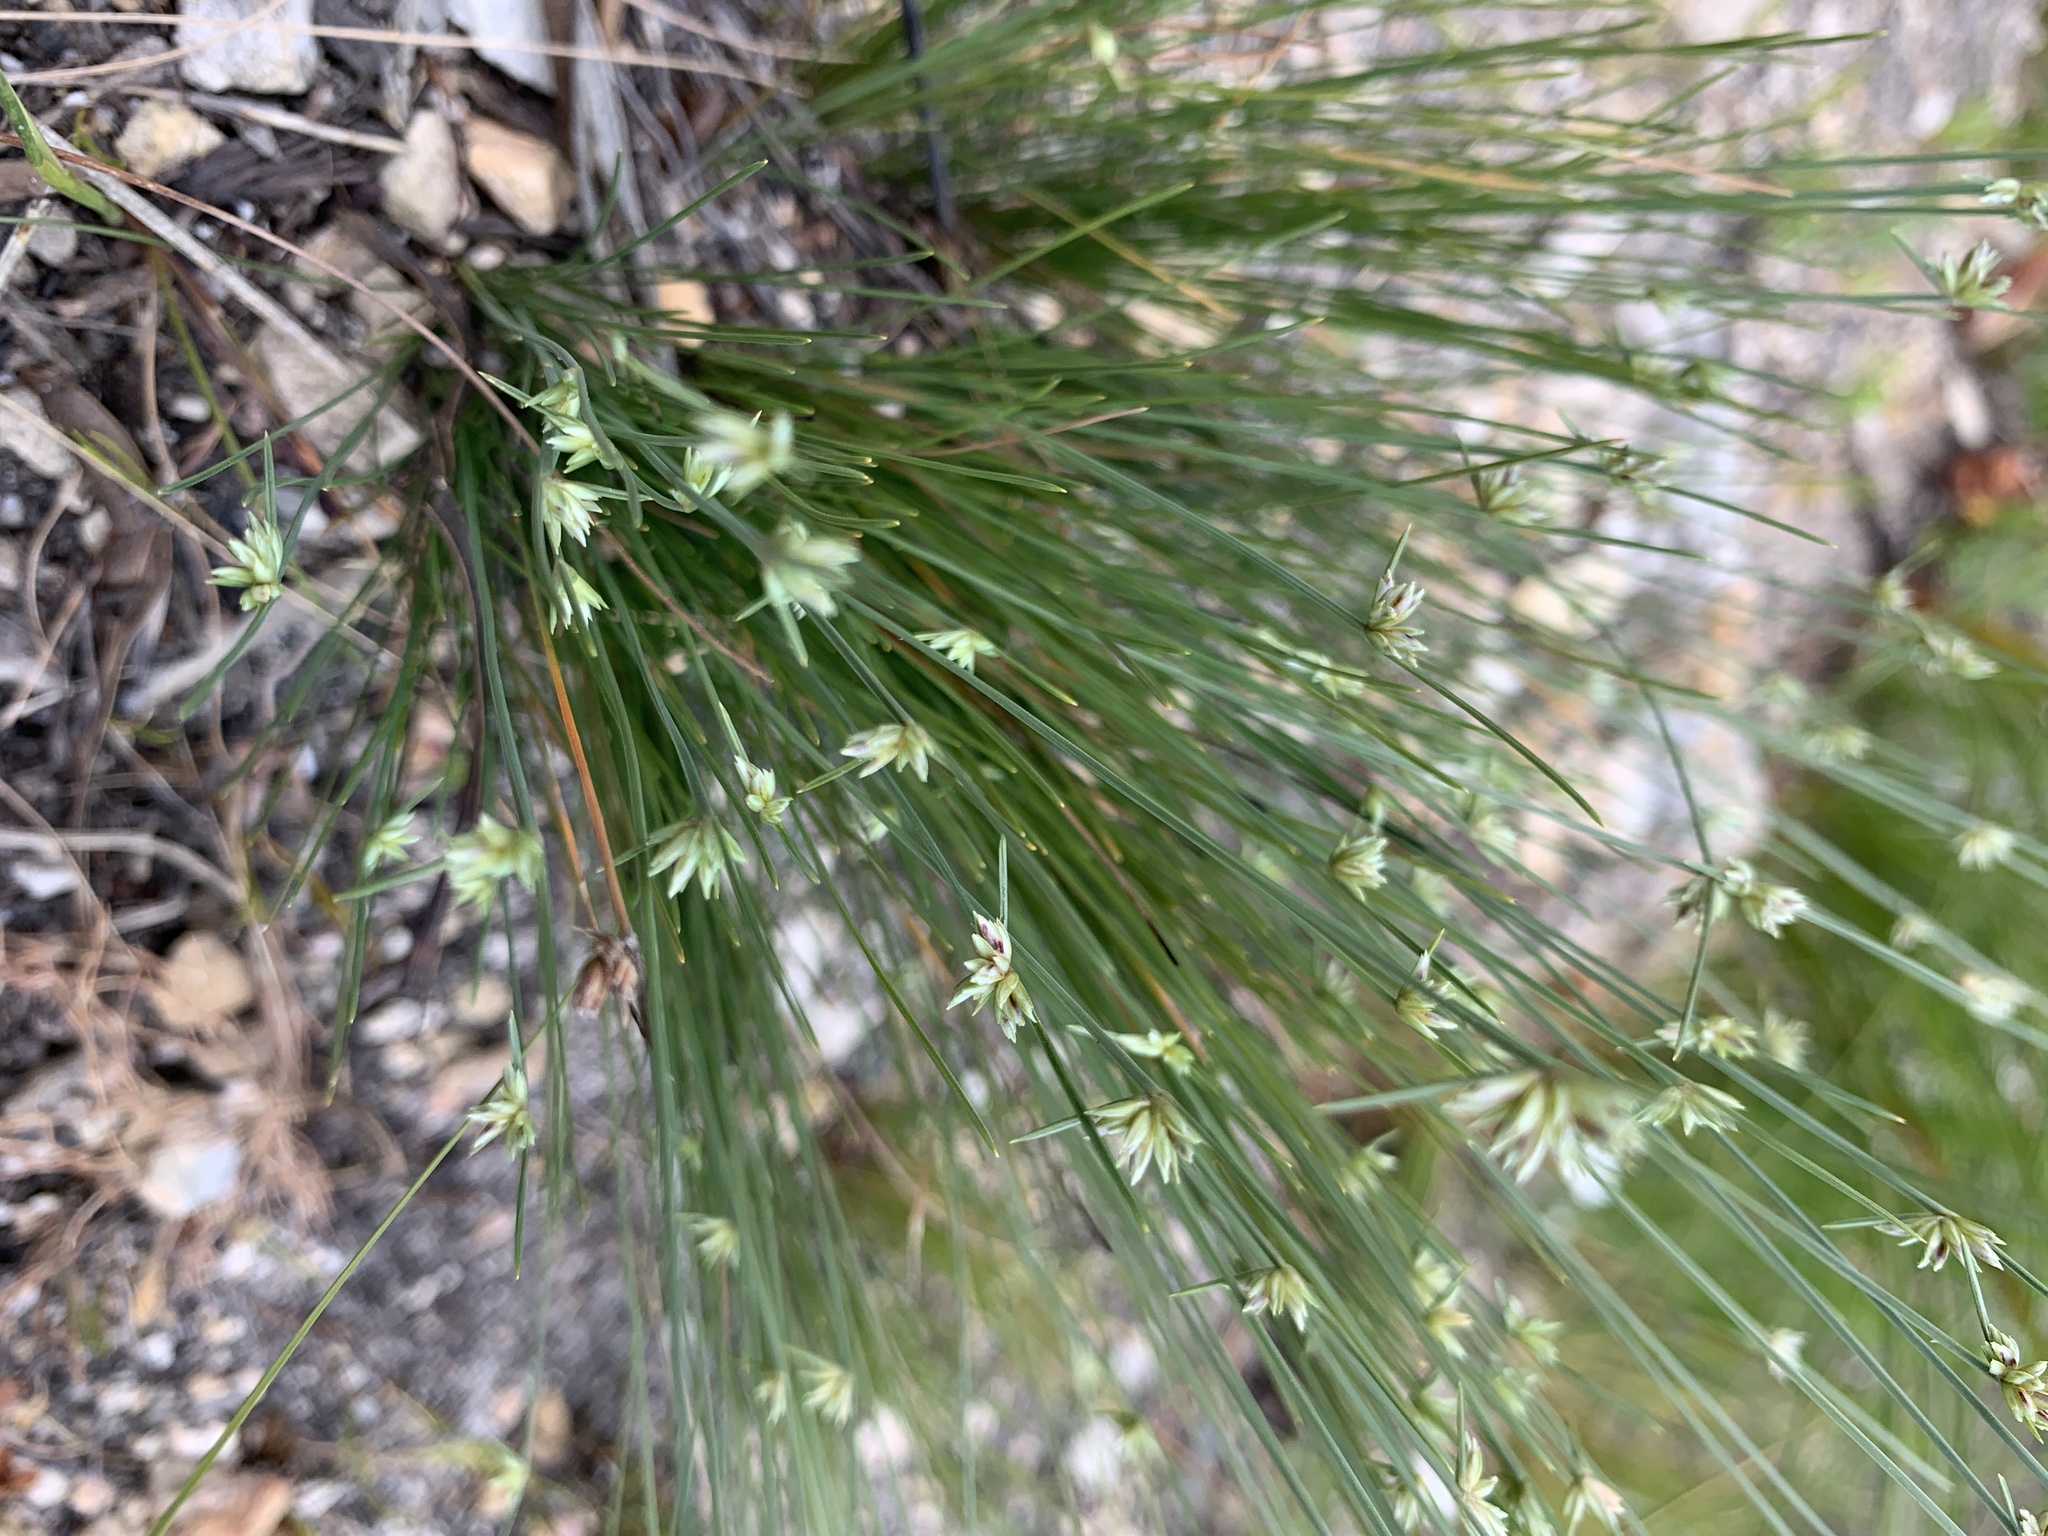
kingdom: Plantae
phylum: Tracheophyta
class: Liliopsida
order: Poales
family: Cyperaceae
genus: Ficinia
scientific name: Ficinia albicans
